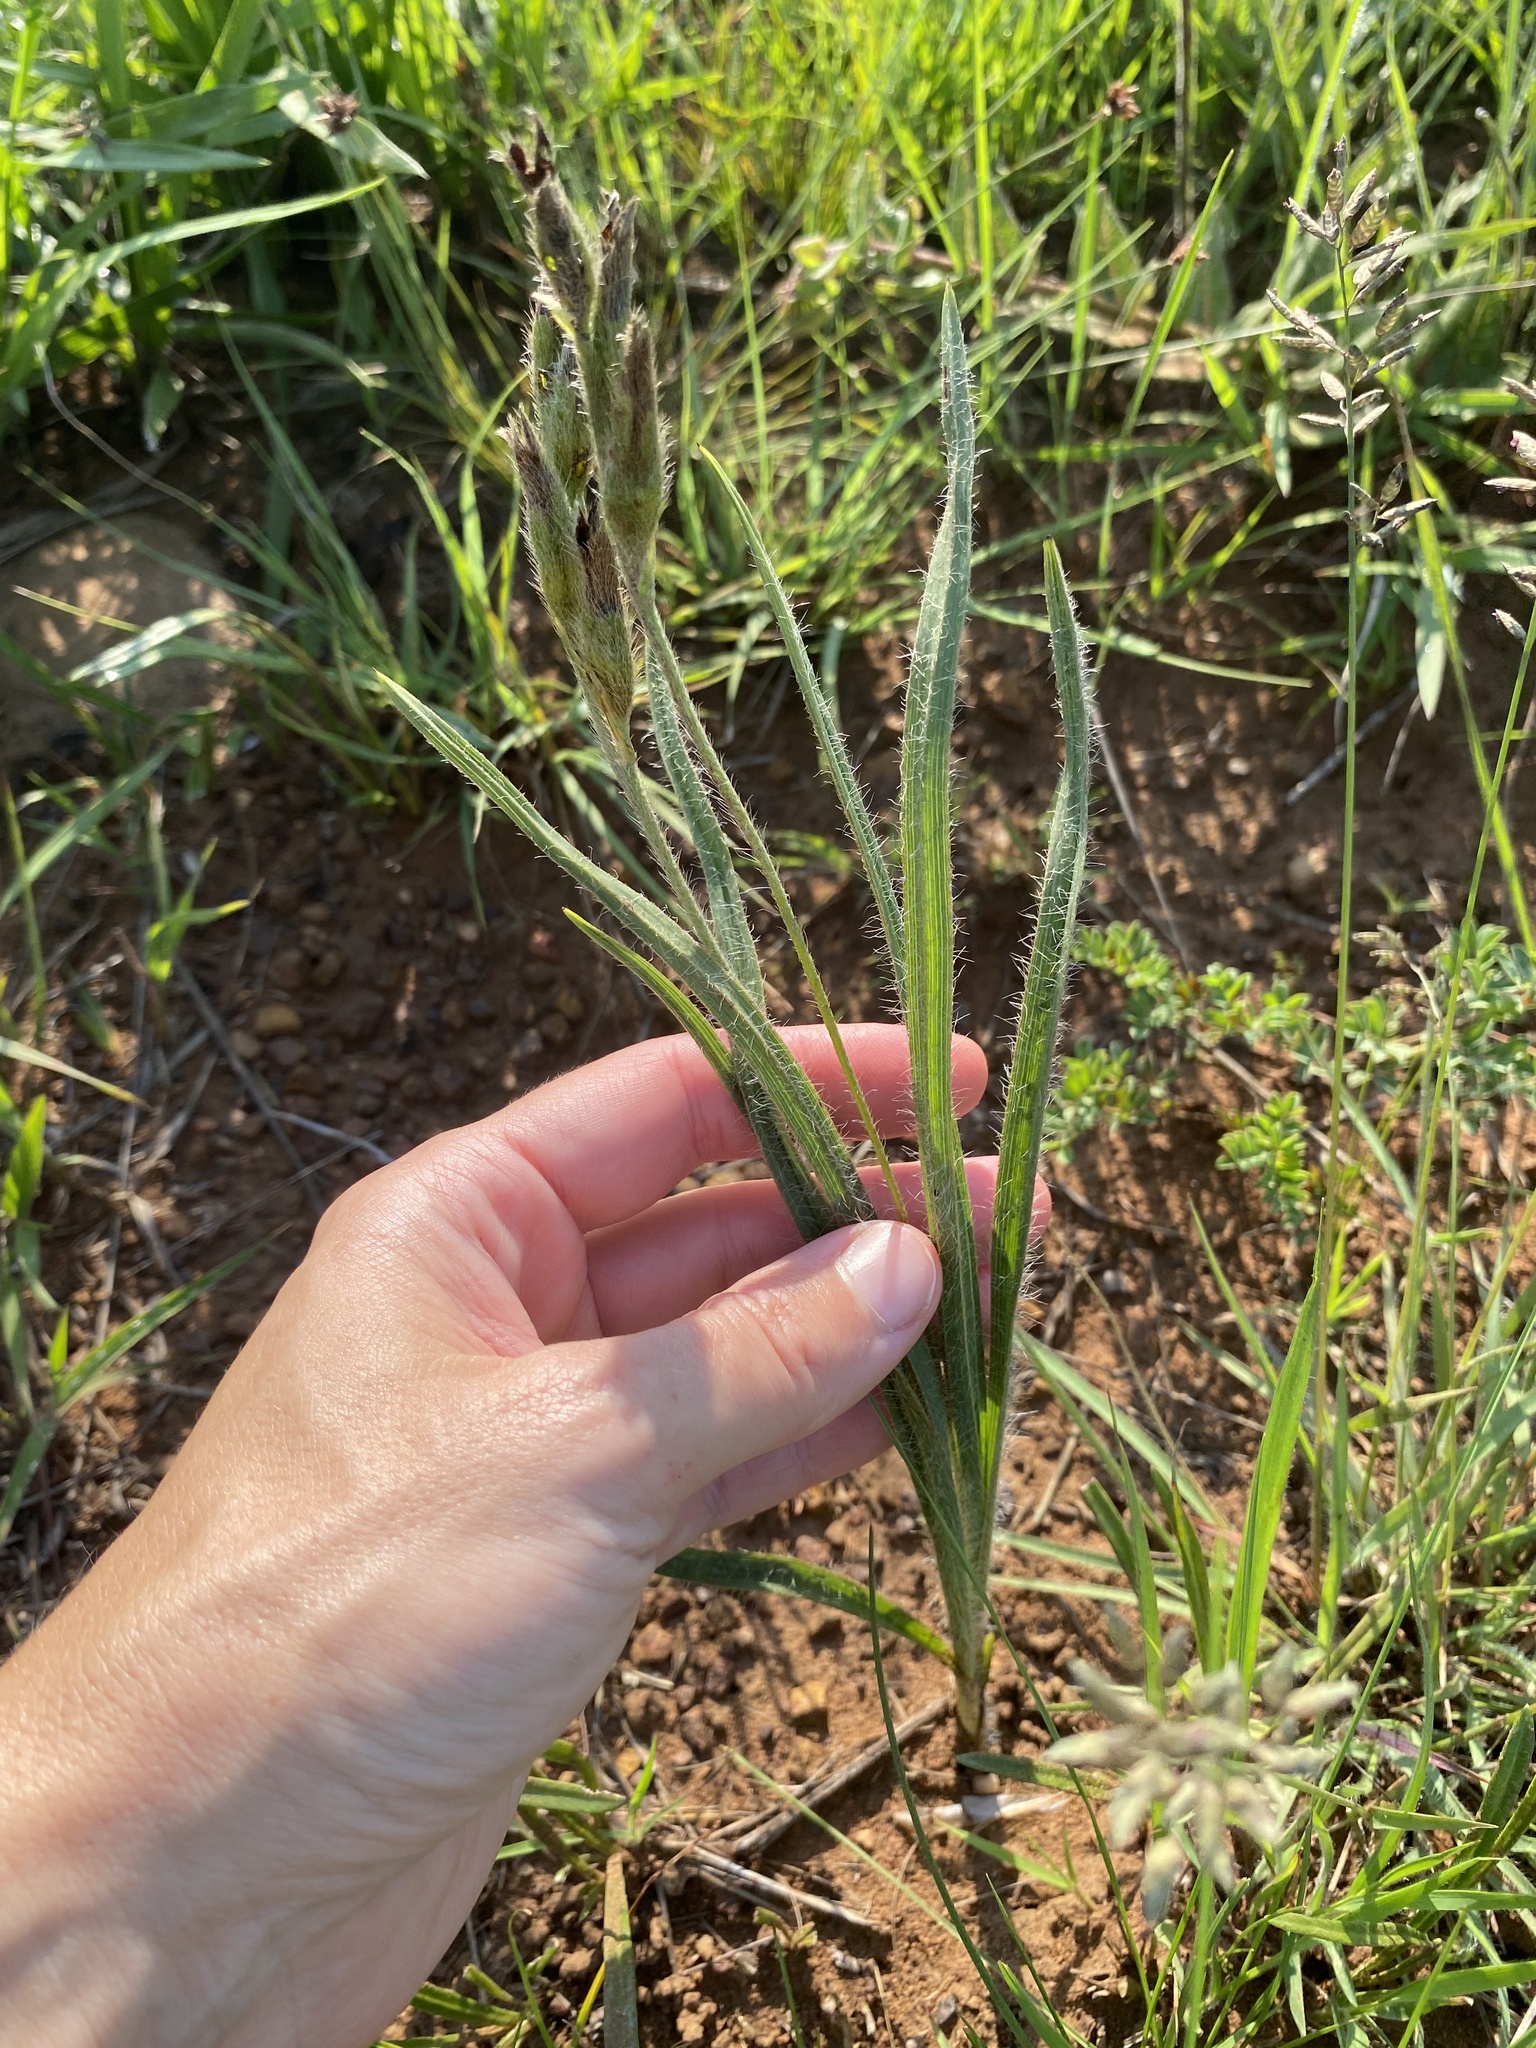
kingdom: Plantae
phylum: Tracheophyta
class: Liliopsida
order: Asparagales
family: Hypoxidaceae
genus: Hypoxis
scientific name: Hypoxis rigidula
